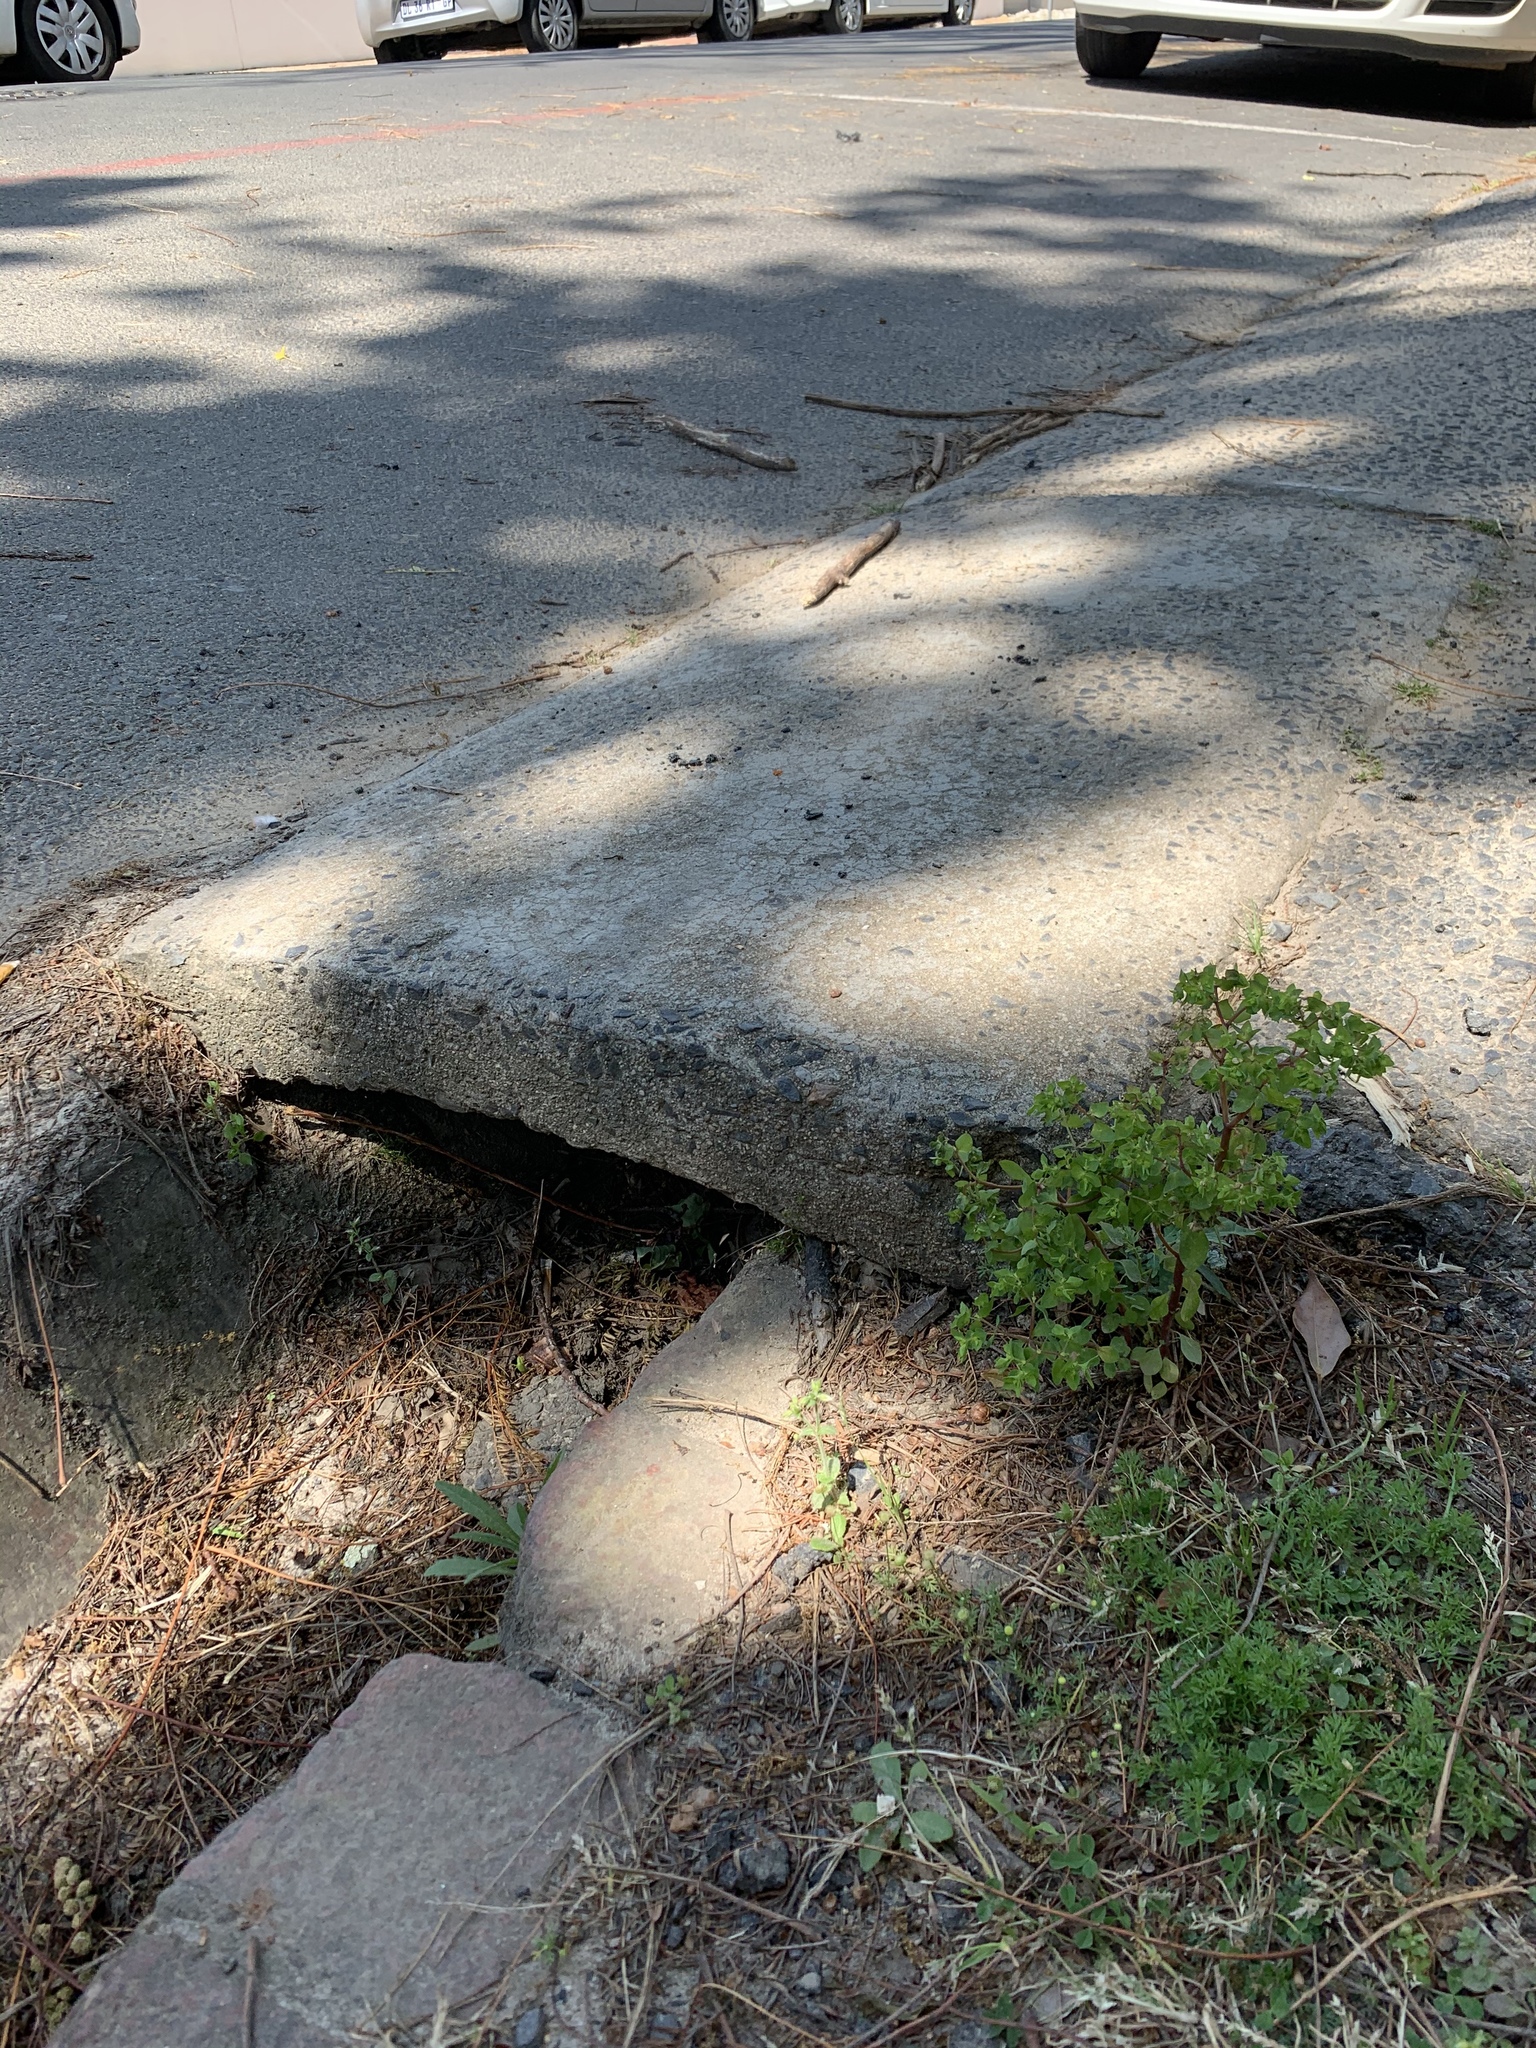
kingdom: Plantae
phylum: Tracheophyta
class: Magnoliopsida
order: Malpighiales
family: Euphorbiaceae
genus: Euphorbia
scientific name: Euphorbia peplus
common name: Petty spurge
